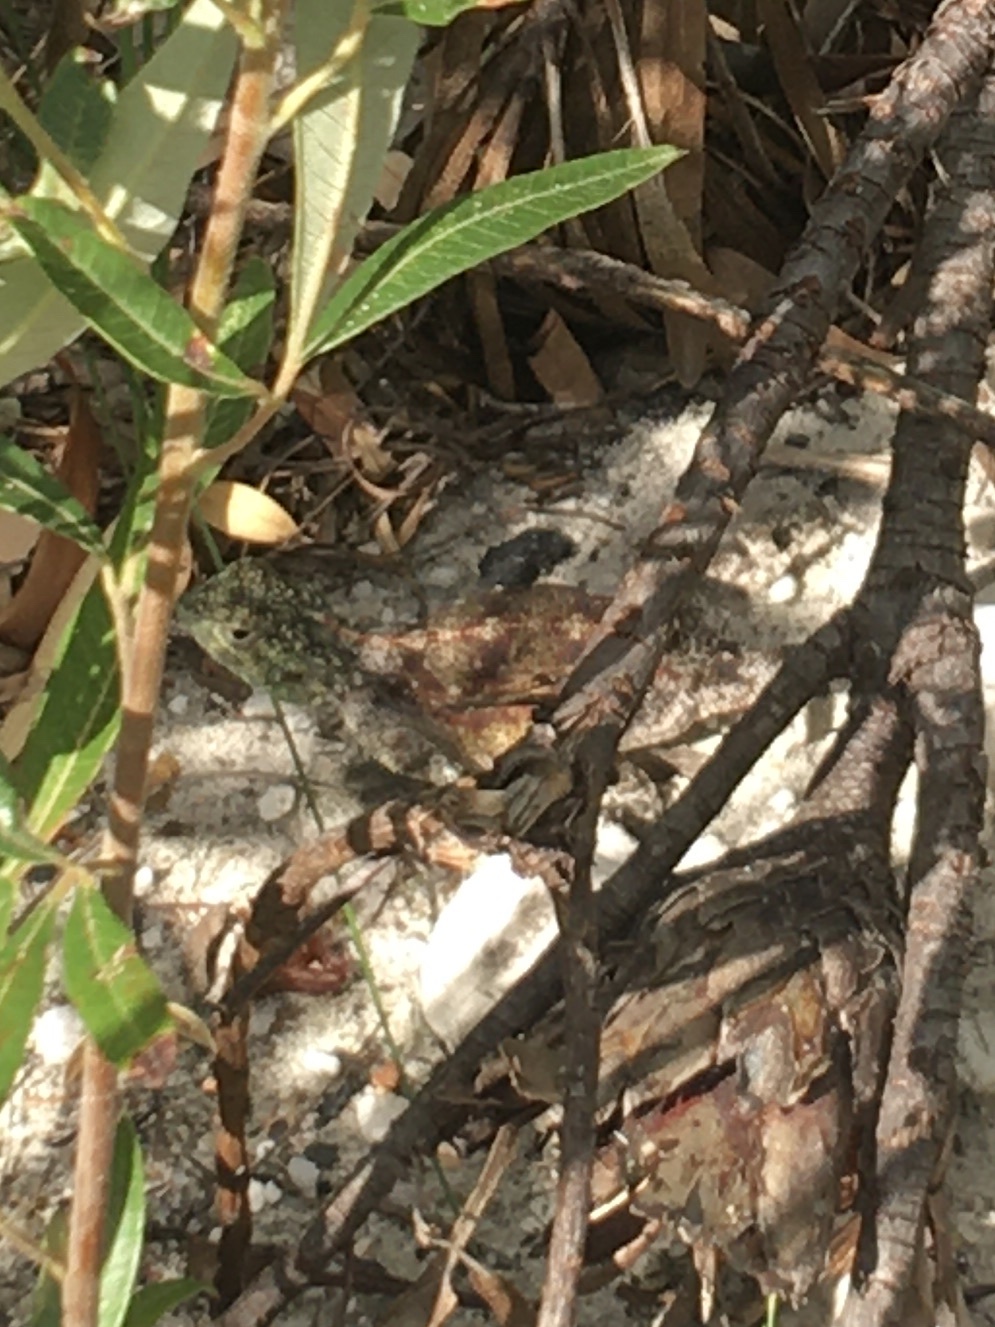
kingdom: Animalia
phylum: Chordata
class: Squamata
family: Agamidae
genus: Agama
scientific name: Agama atra
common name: Southern african rock agama
